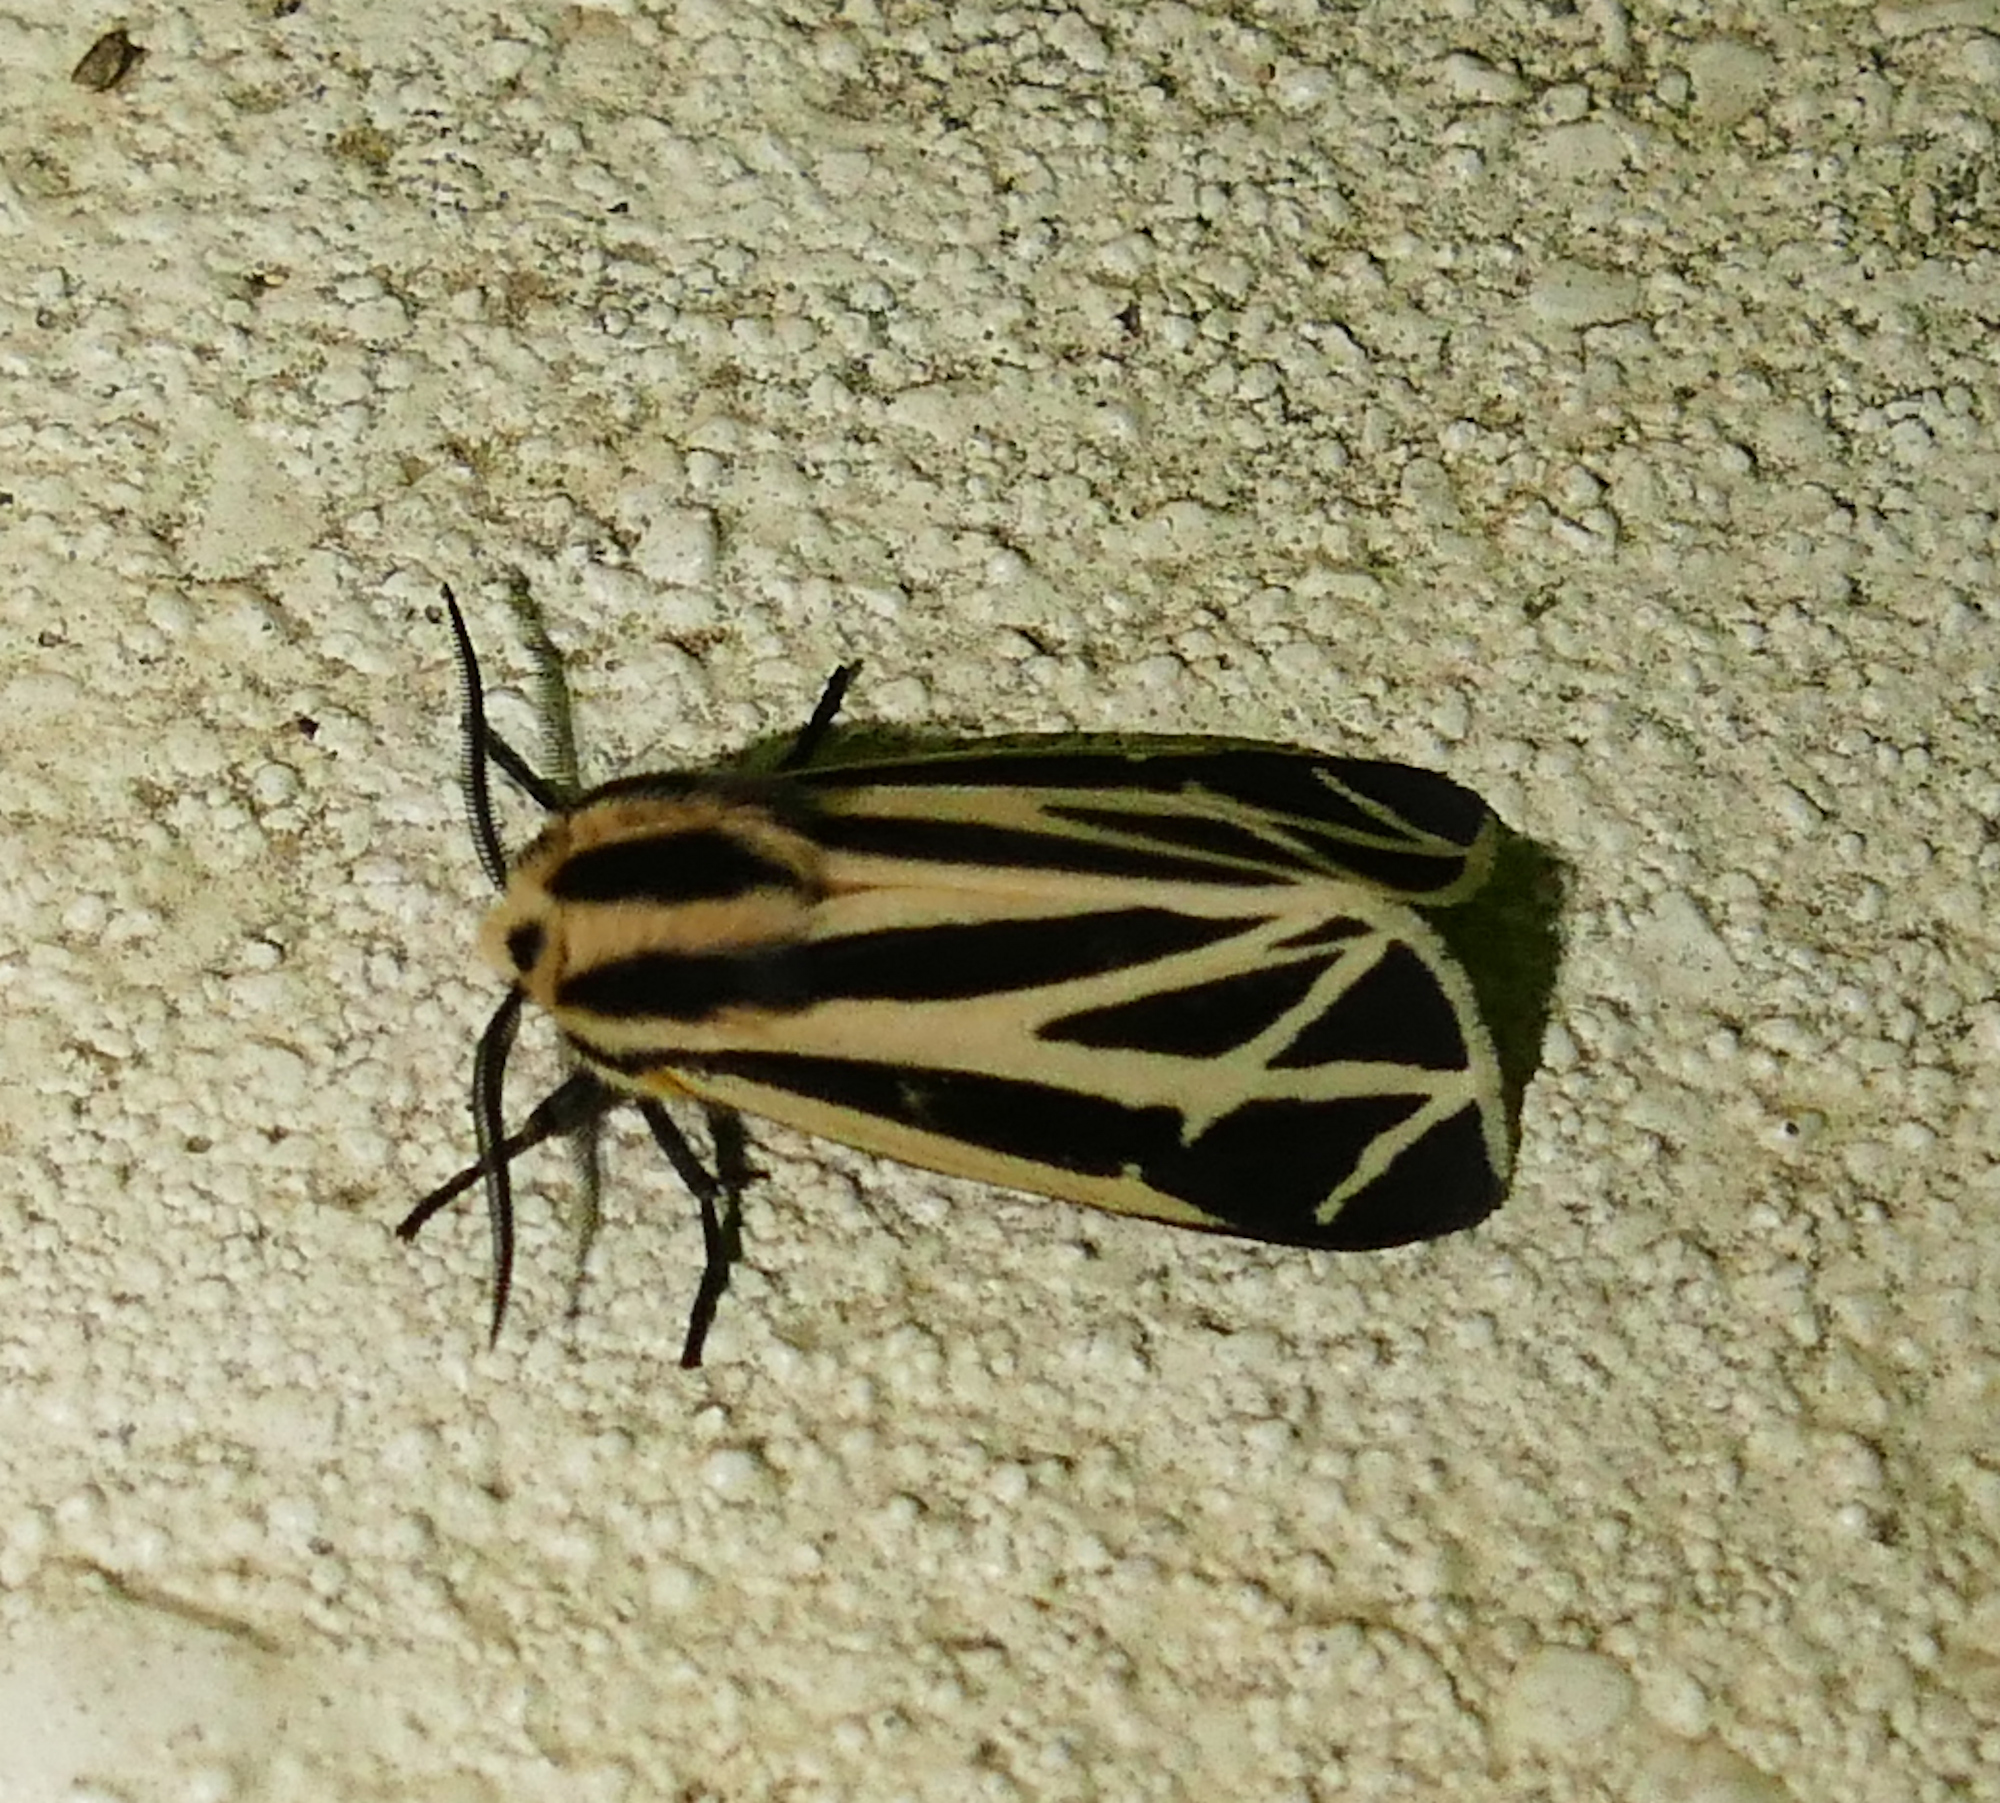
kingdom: Animalia
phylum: Arthropoda
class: Insecta
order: Lepidoptera
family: Erebidae
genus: Apantesis
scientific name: Apantesis phalerata
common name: Harnessed tiger moth
